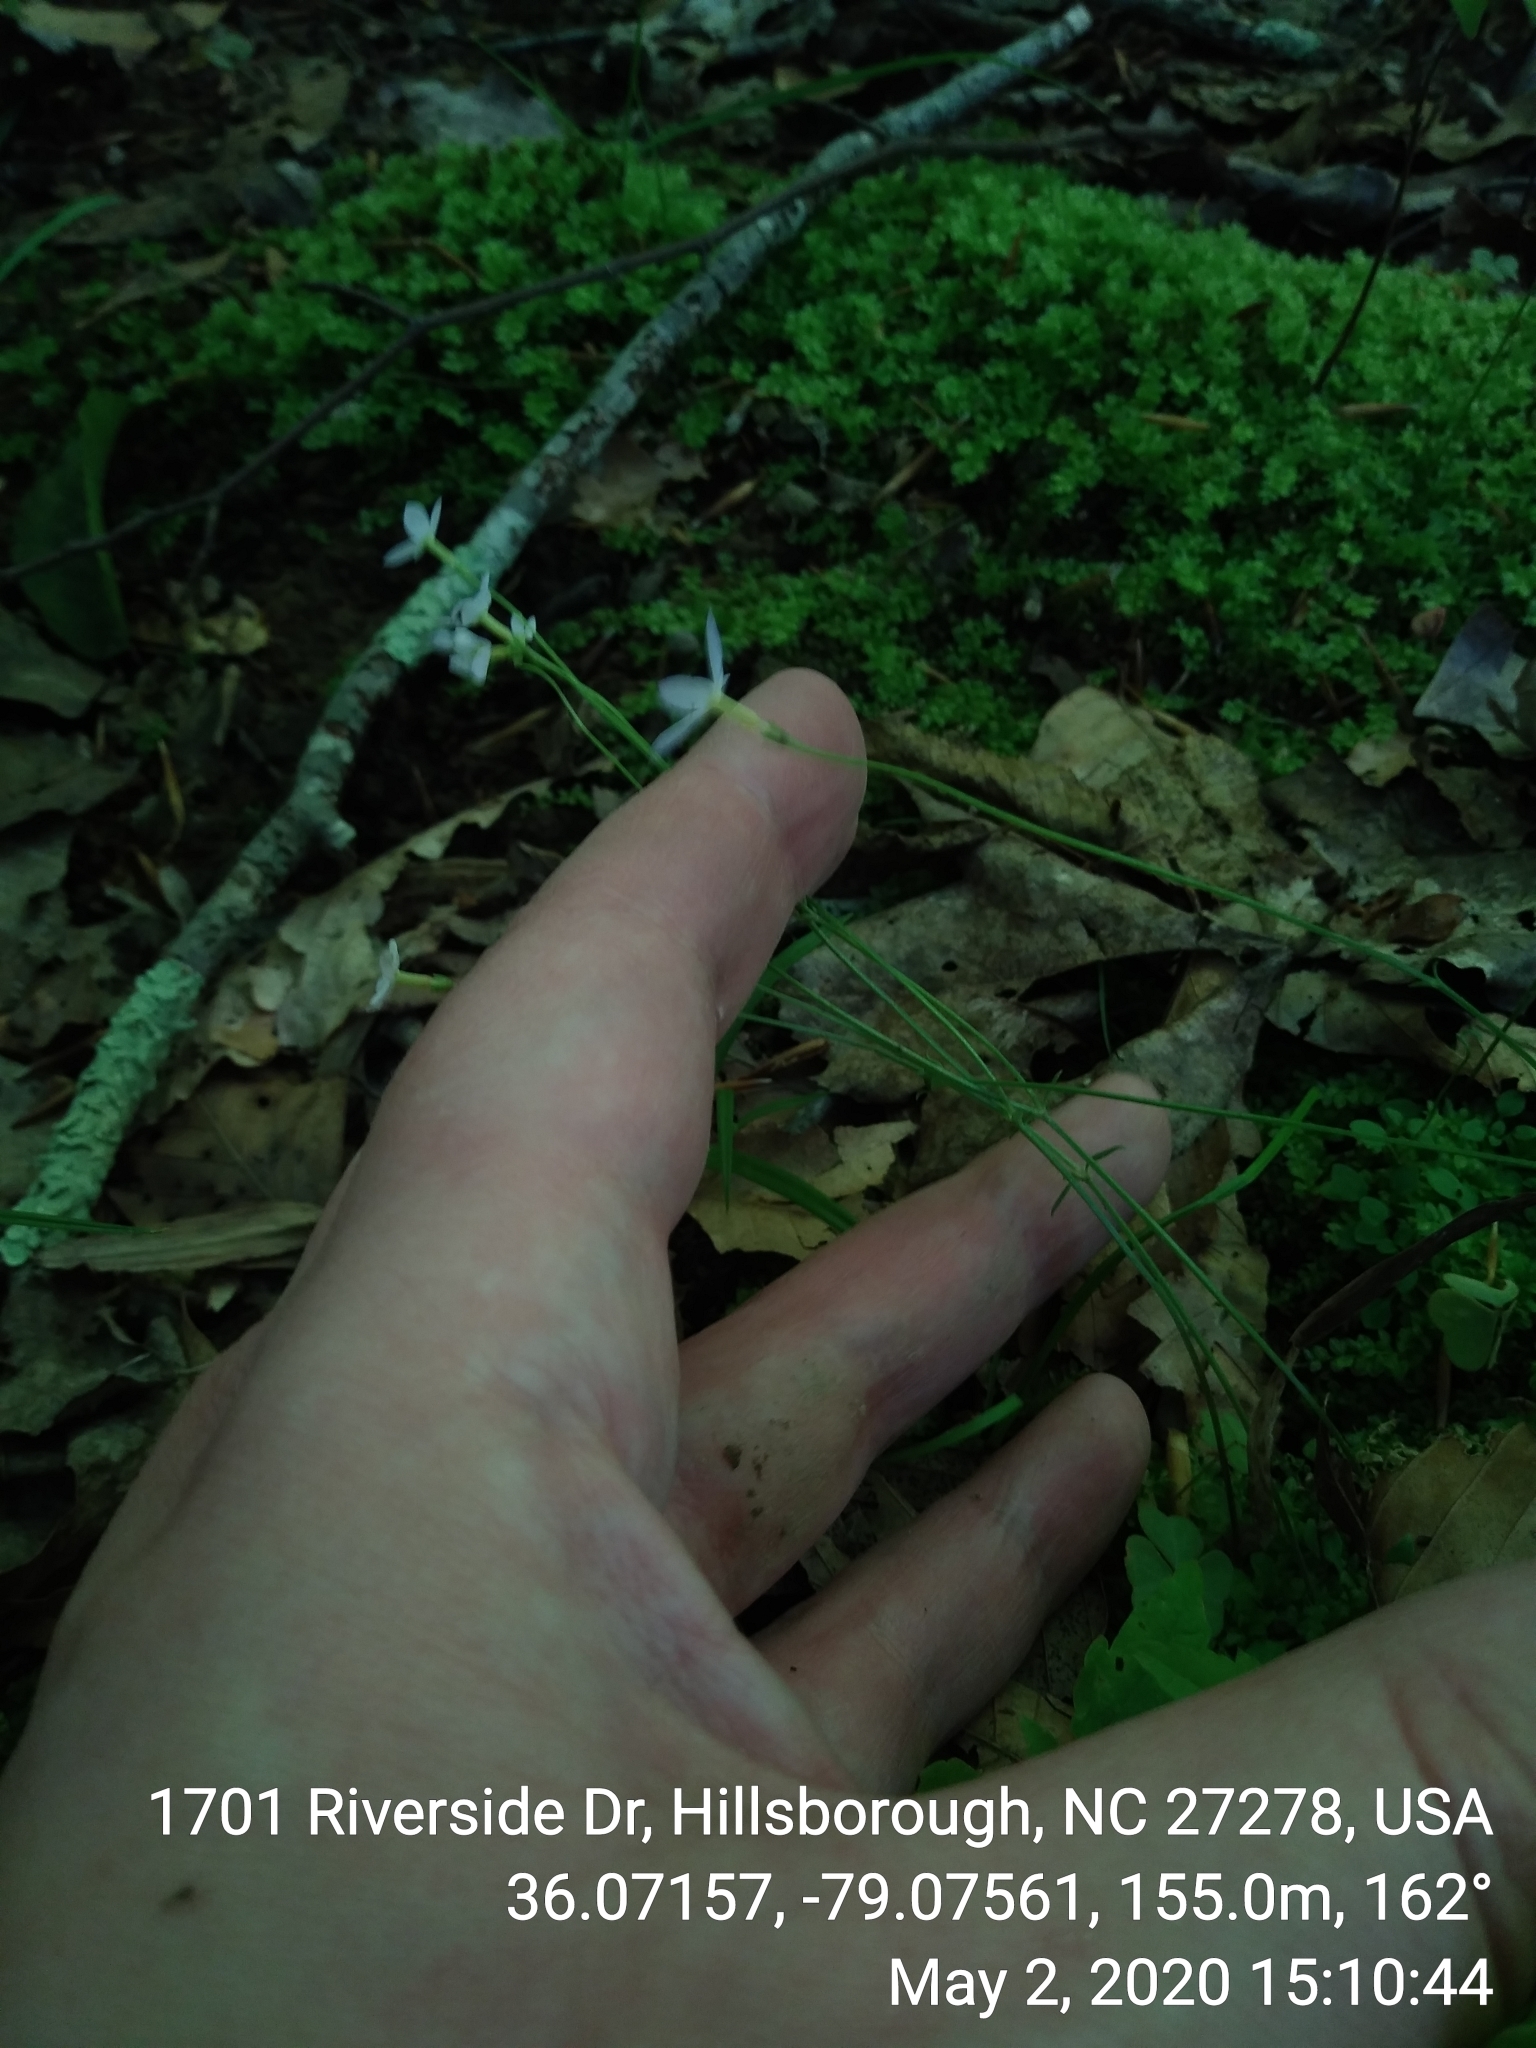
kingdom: Plantae
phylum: Tracheophyta
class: Magnoliopsida
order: Gentianales
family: Rubiaceae
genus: Houstonia
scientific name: Houstonia caerulea
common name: Bluets
